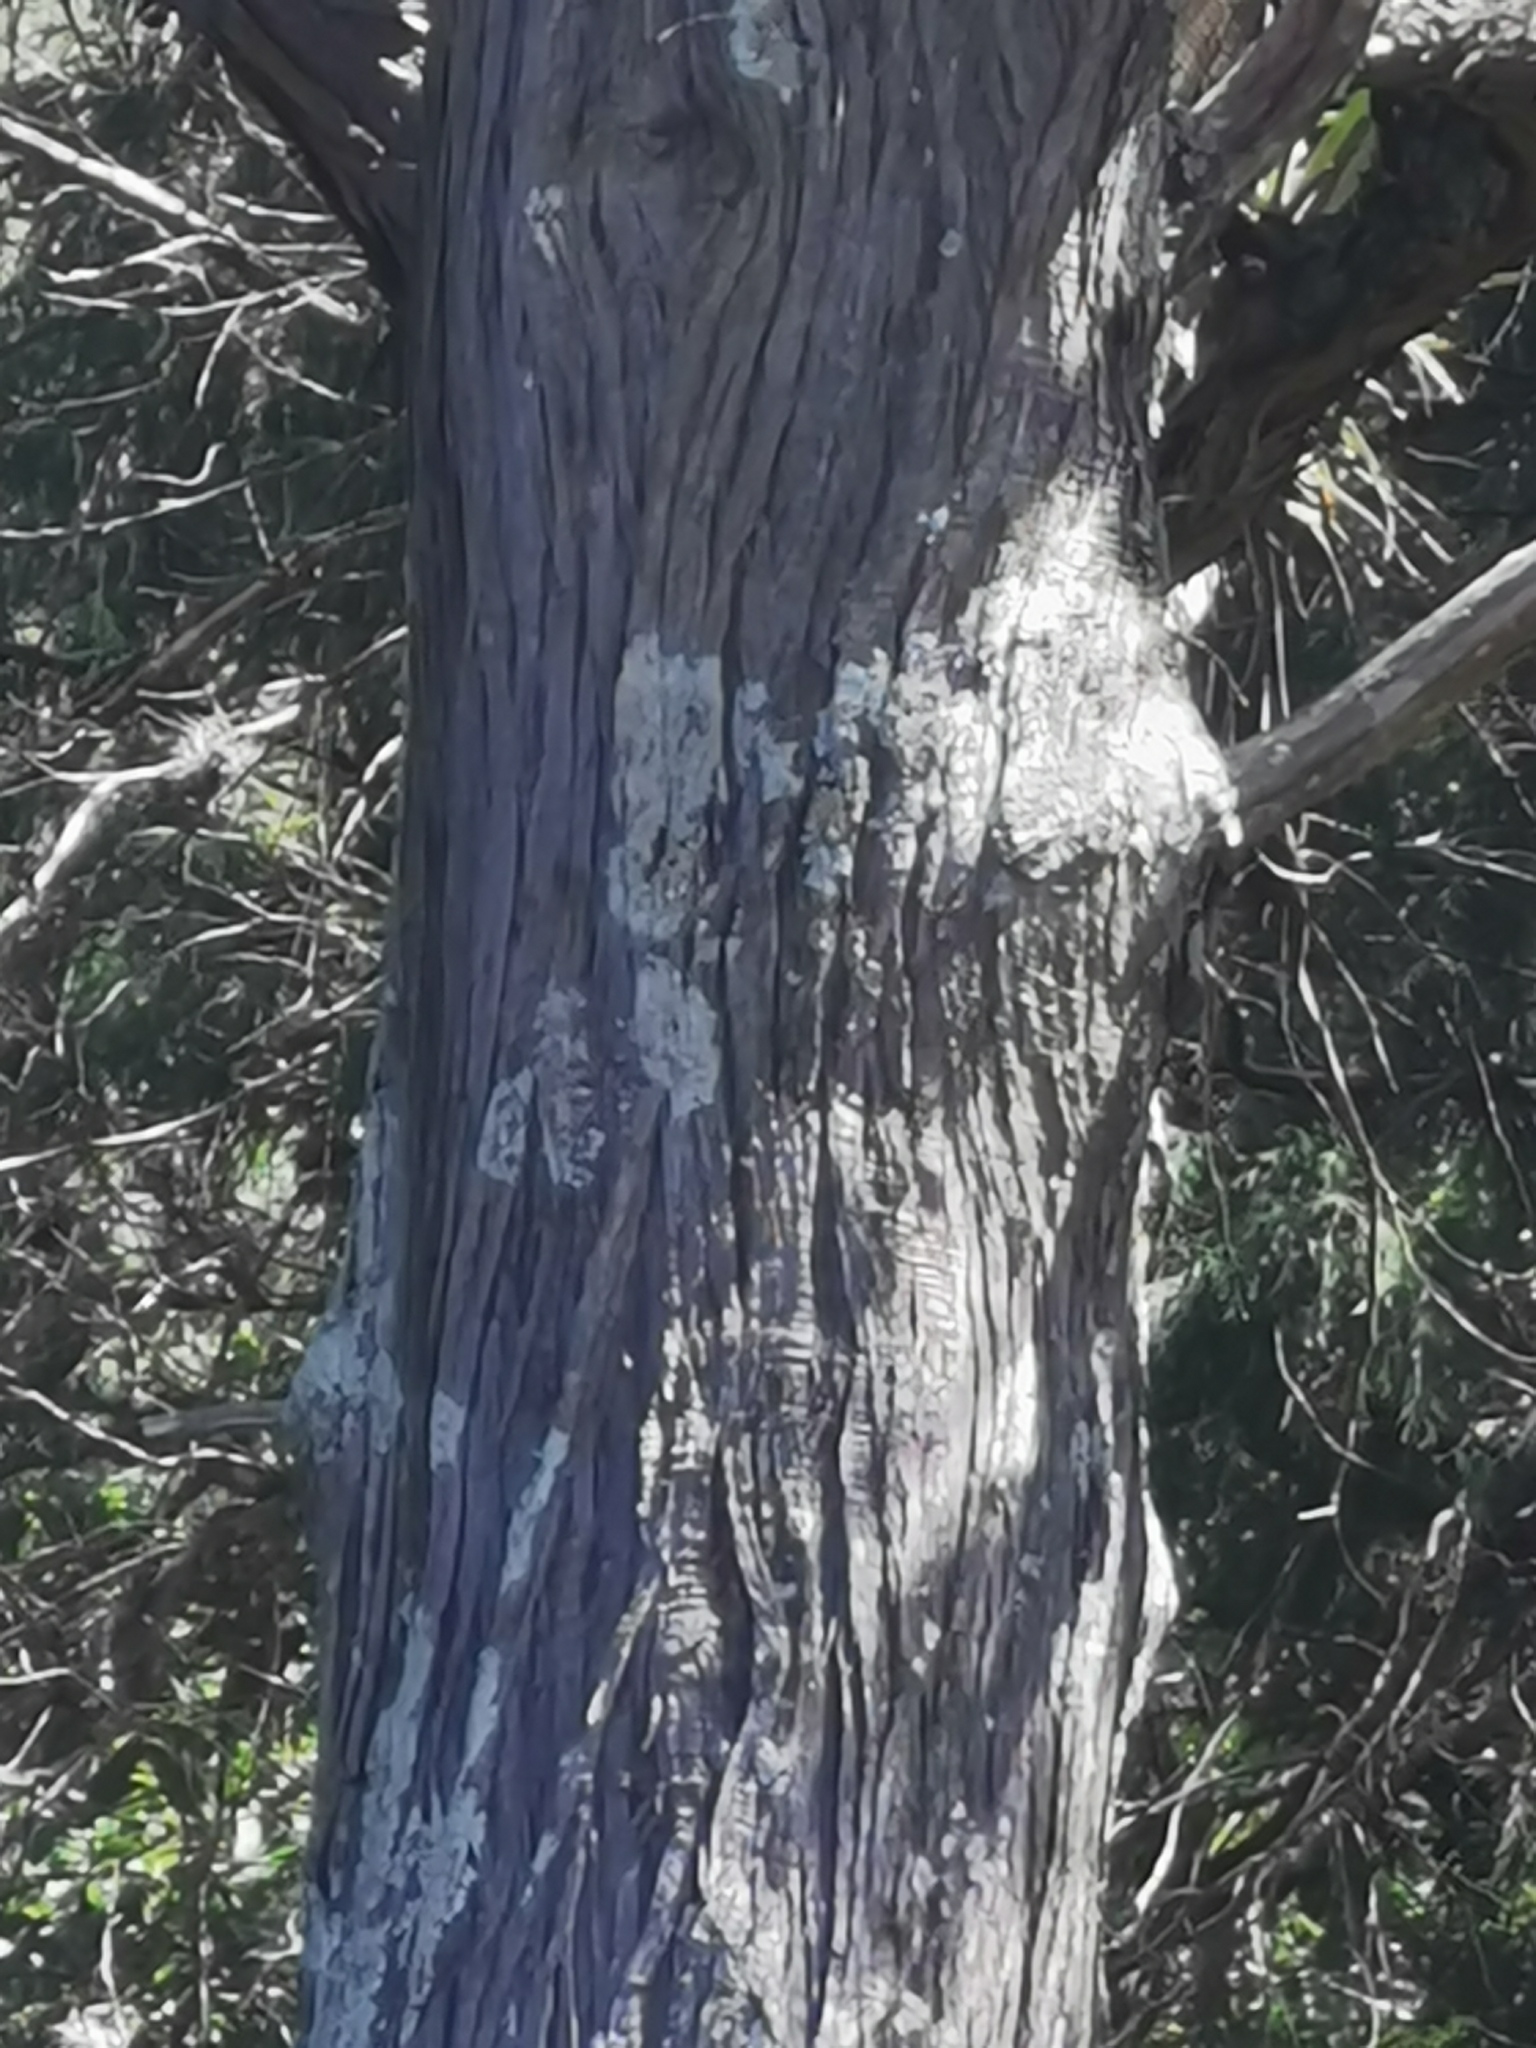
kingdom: Plantae
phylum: Tracheophyta
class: Pinopsida
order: Pinales
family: Cupressaceae
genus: Juniperus
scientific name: Juniperus flaccida
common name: Drooping juniper
